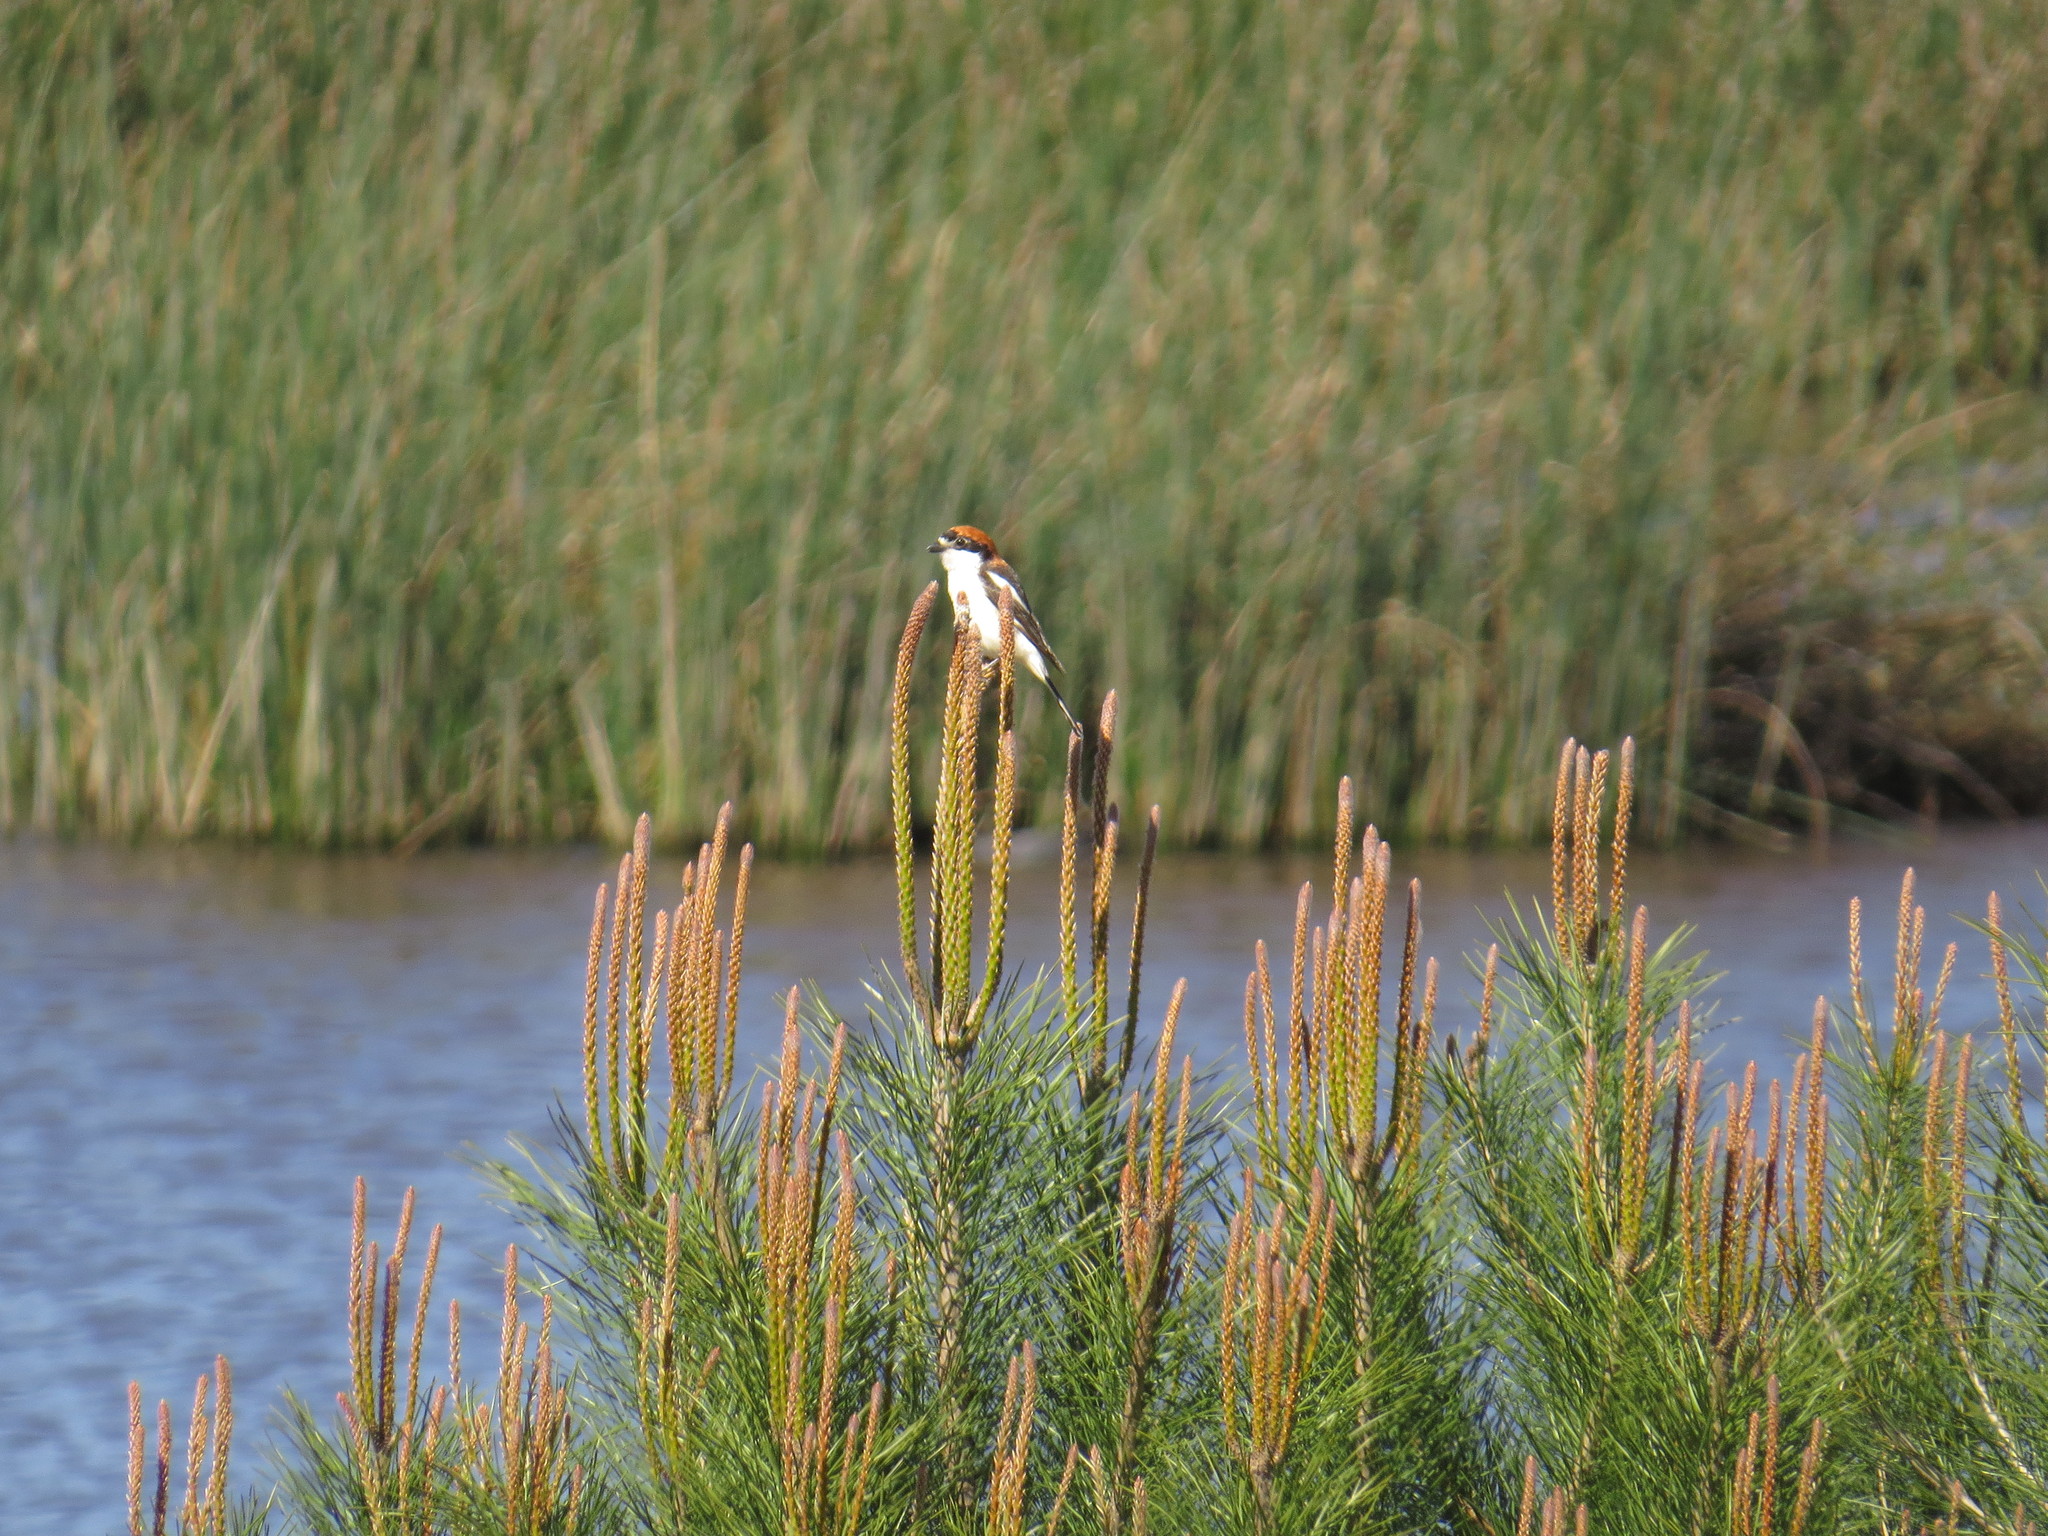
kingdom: Animalia
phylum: Chordata
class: Aves
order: Passeriformes
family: Laniidae
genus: Lanius
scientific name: Lanius senator
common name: Woodchat shrike
